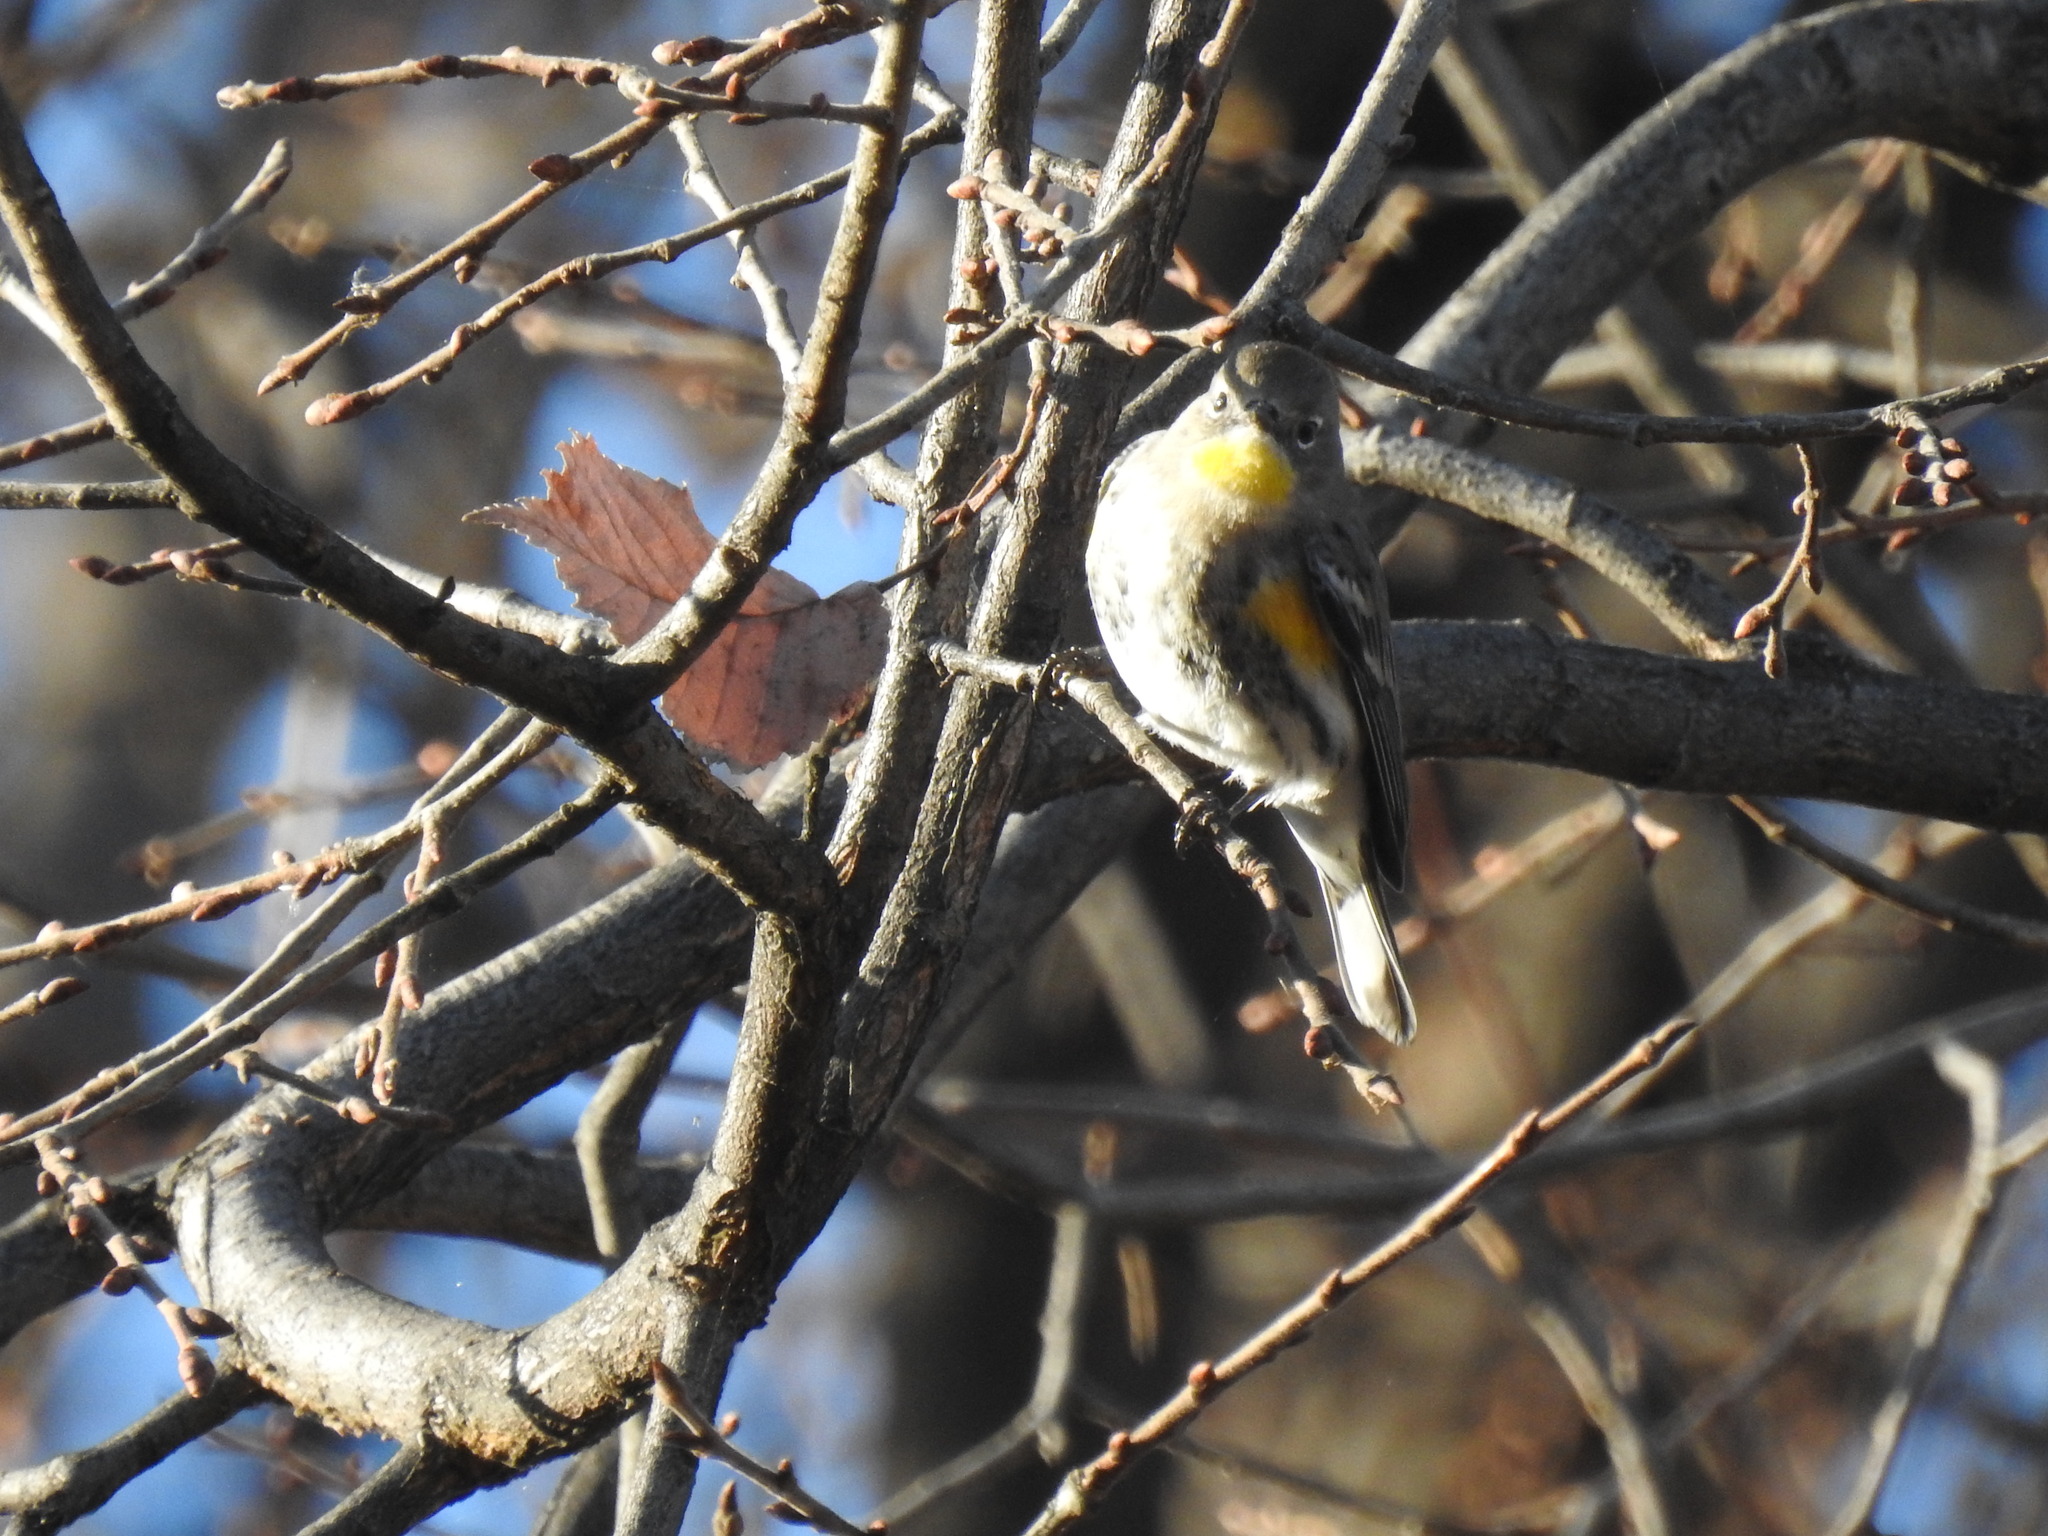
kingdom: Animalia
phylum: Chordata
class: Aves
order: Passeriformes
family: Parulidae
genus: Setophaga
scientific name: Setophaga auduboni
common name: Audubon's warbler
